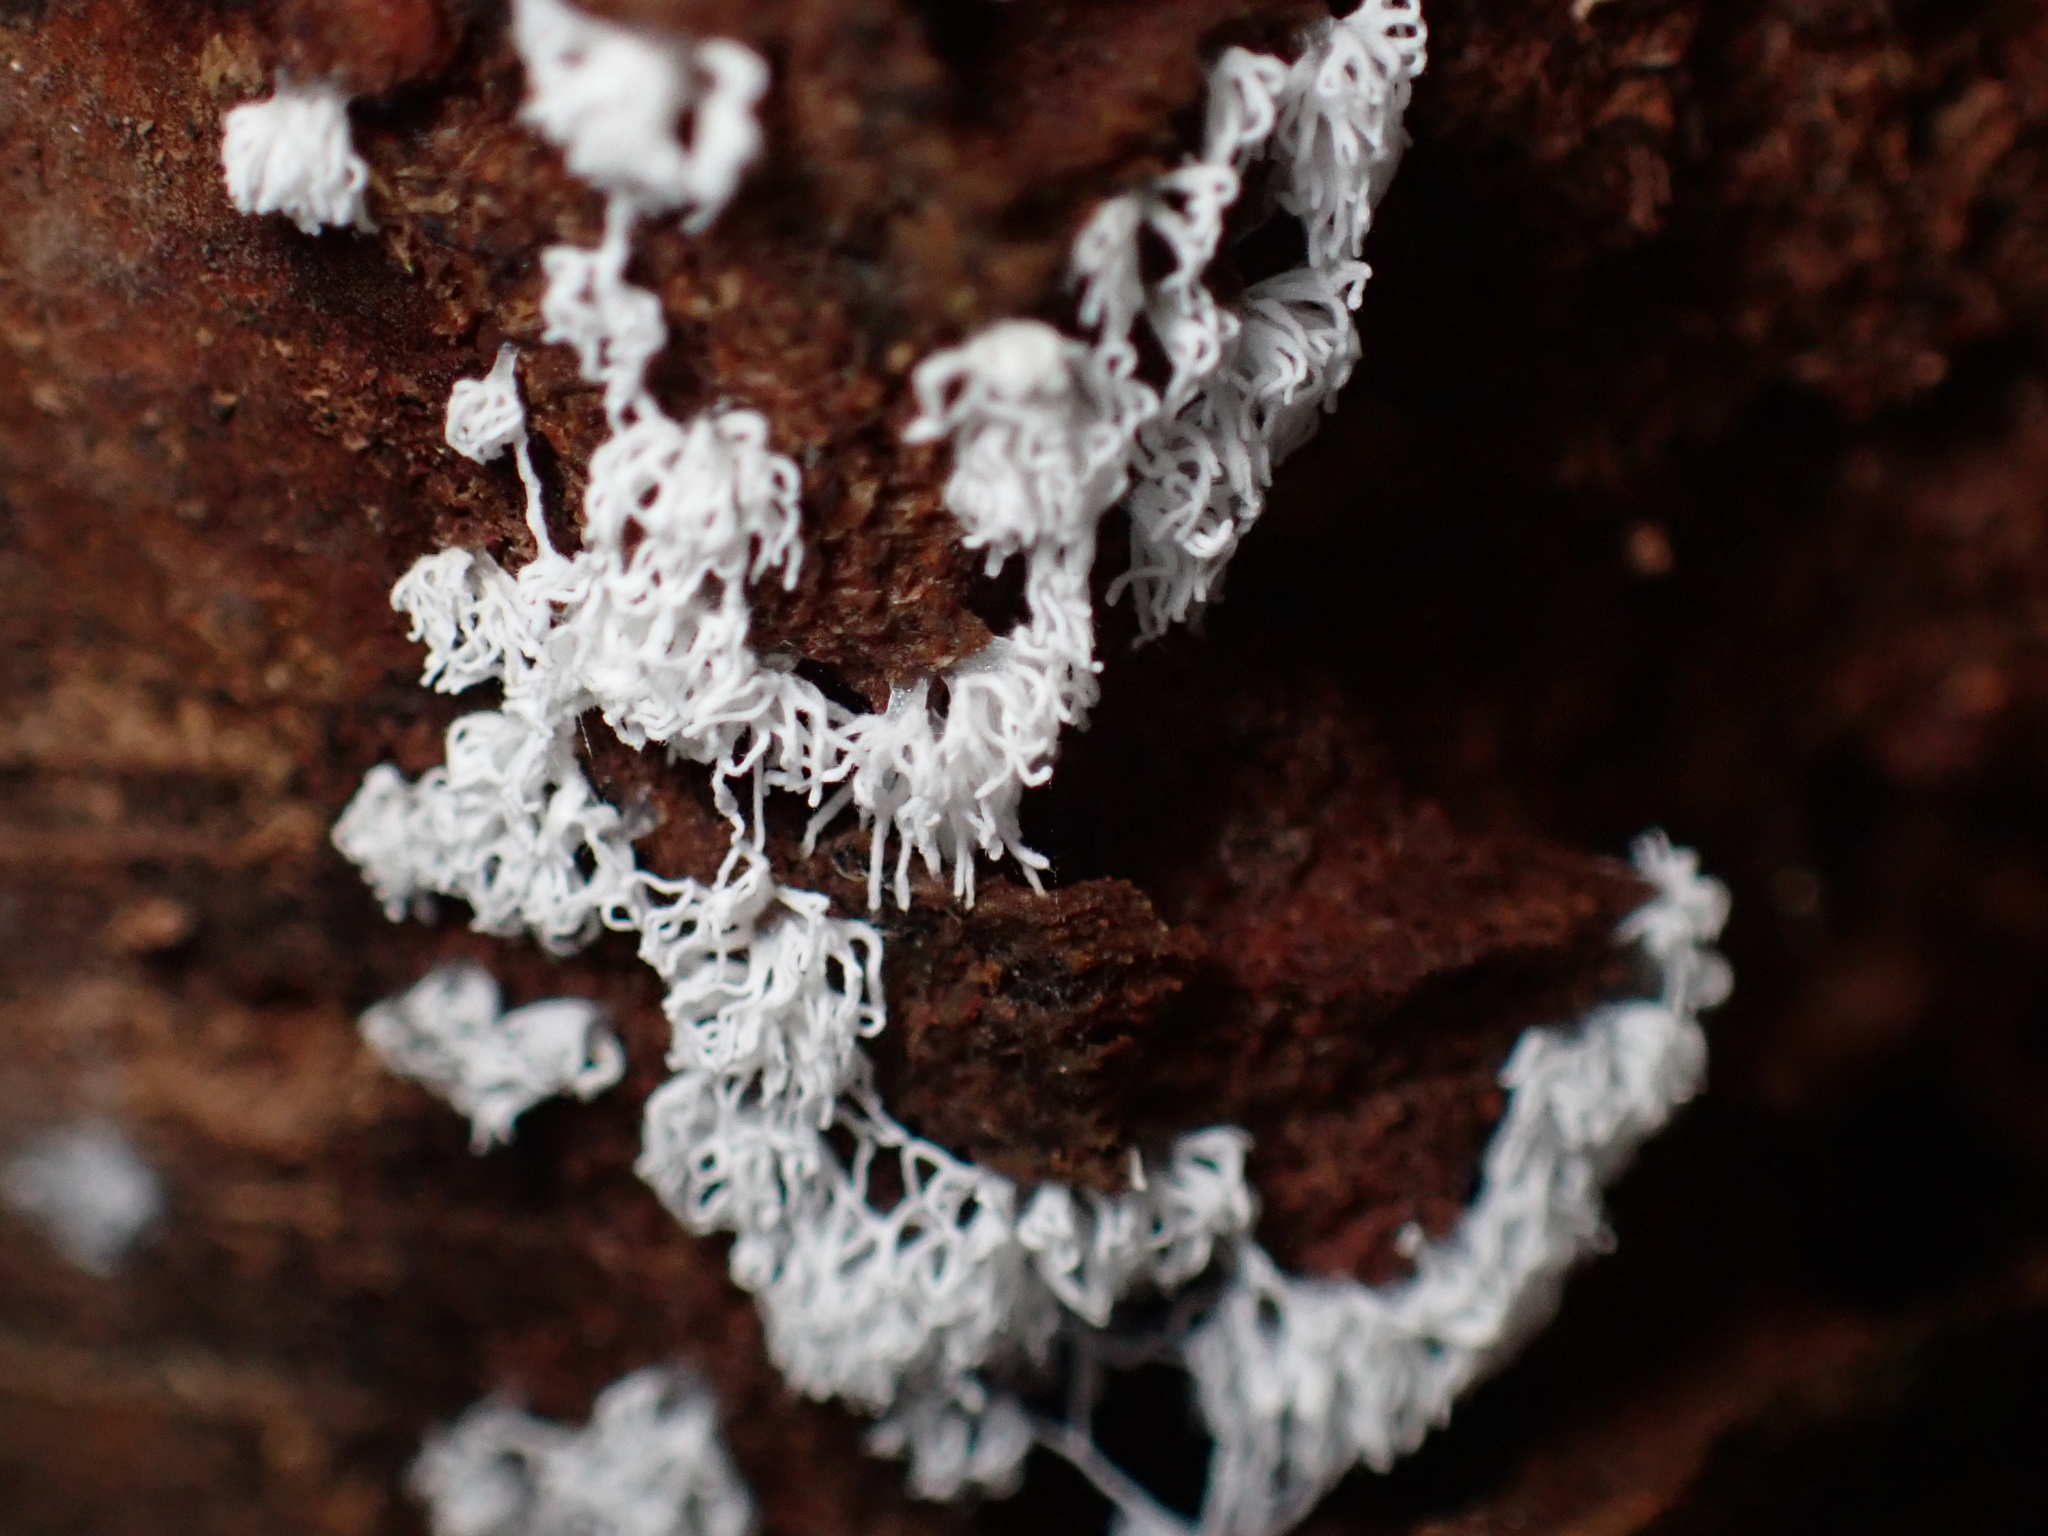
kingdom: Protozoa
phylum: Mycetozoa
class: Protosteliomycetes
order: Ceratiomyxales
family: Ceratiomyxaceae
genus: Ceratiomyxa
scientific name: Ceratiomyxa fruticulosa
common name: Honeycomb coral slime mold
